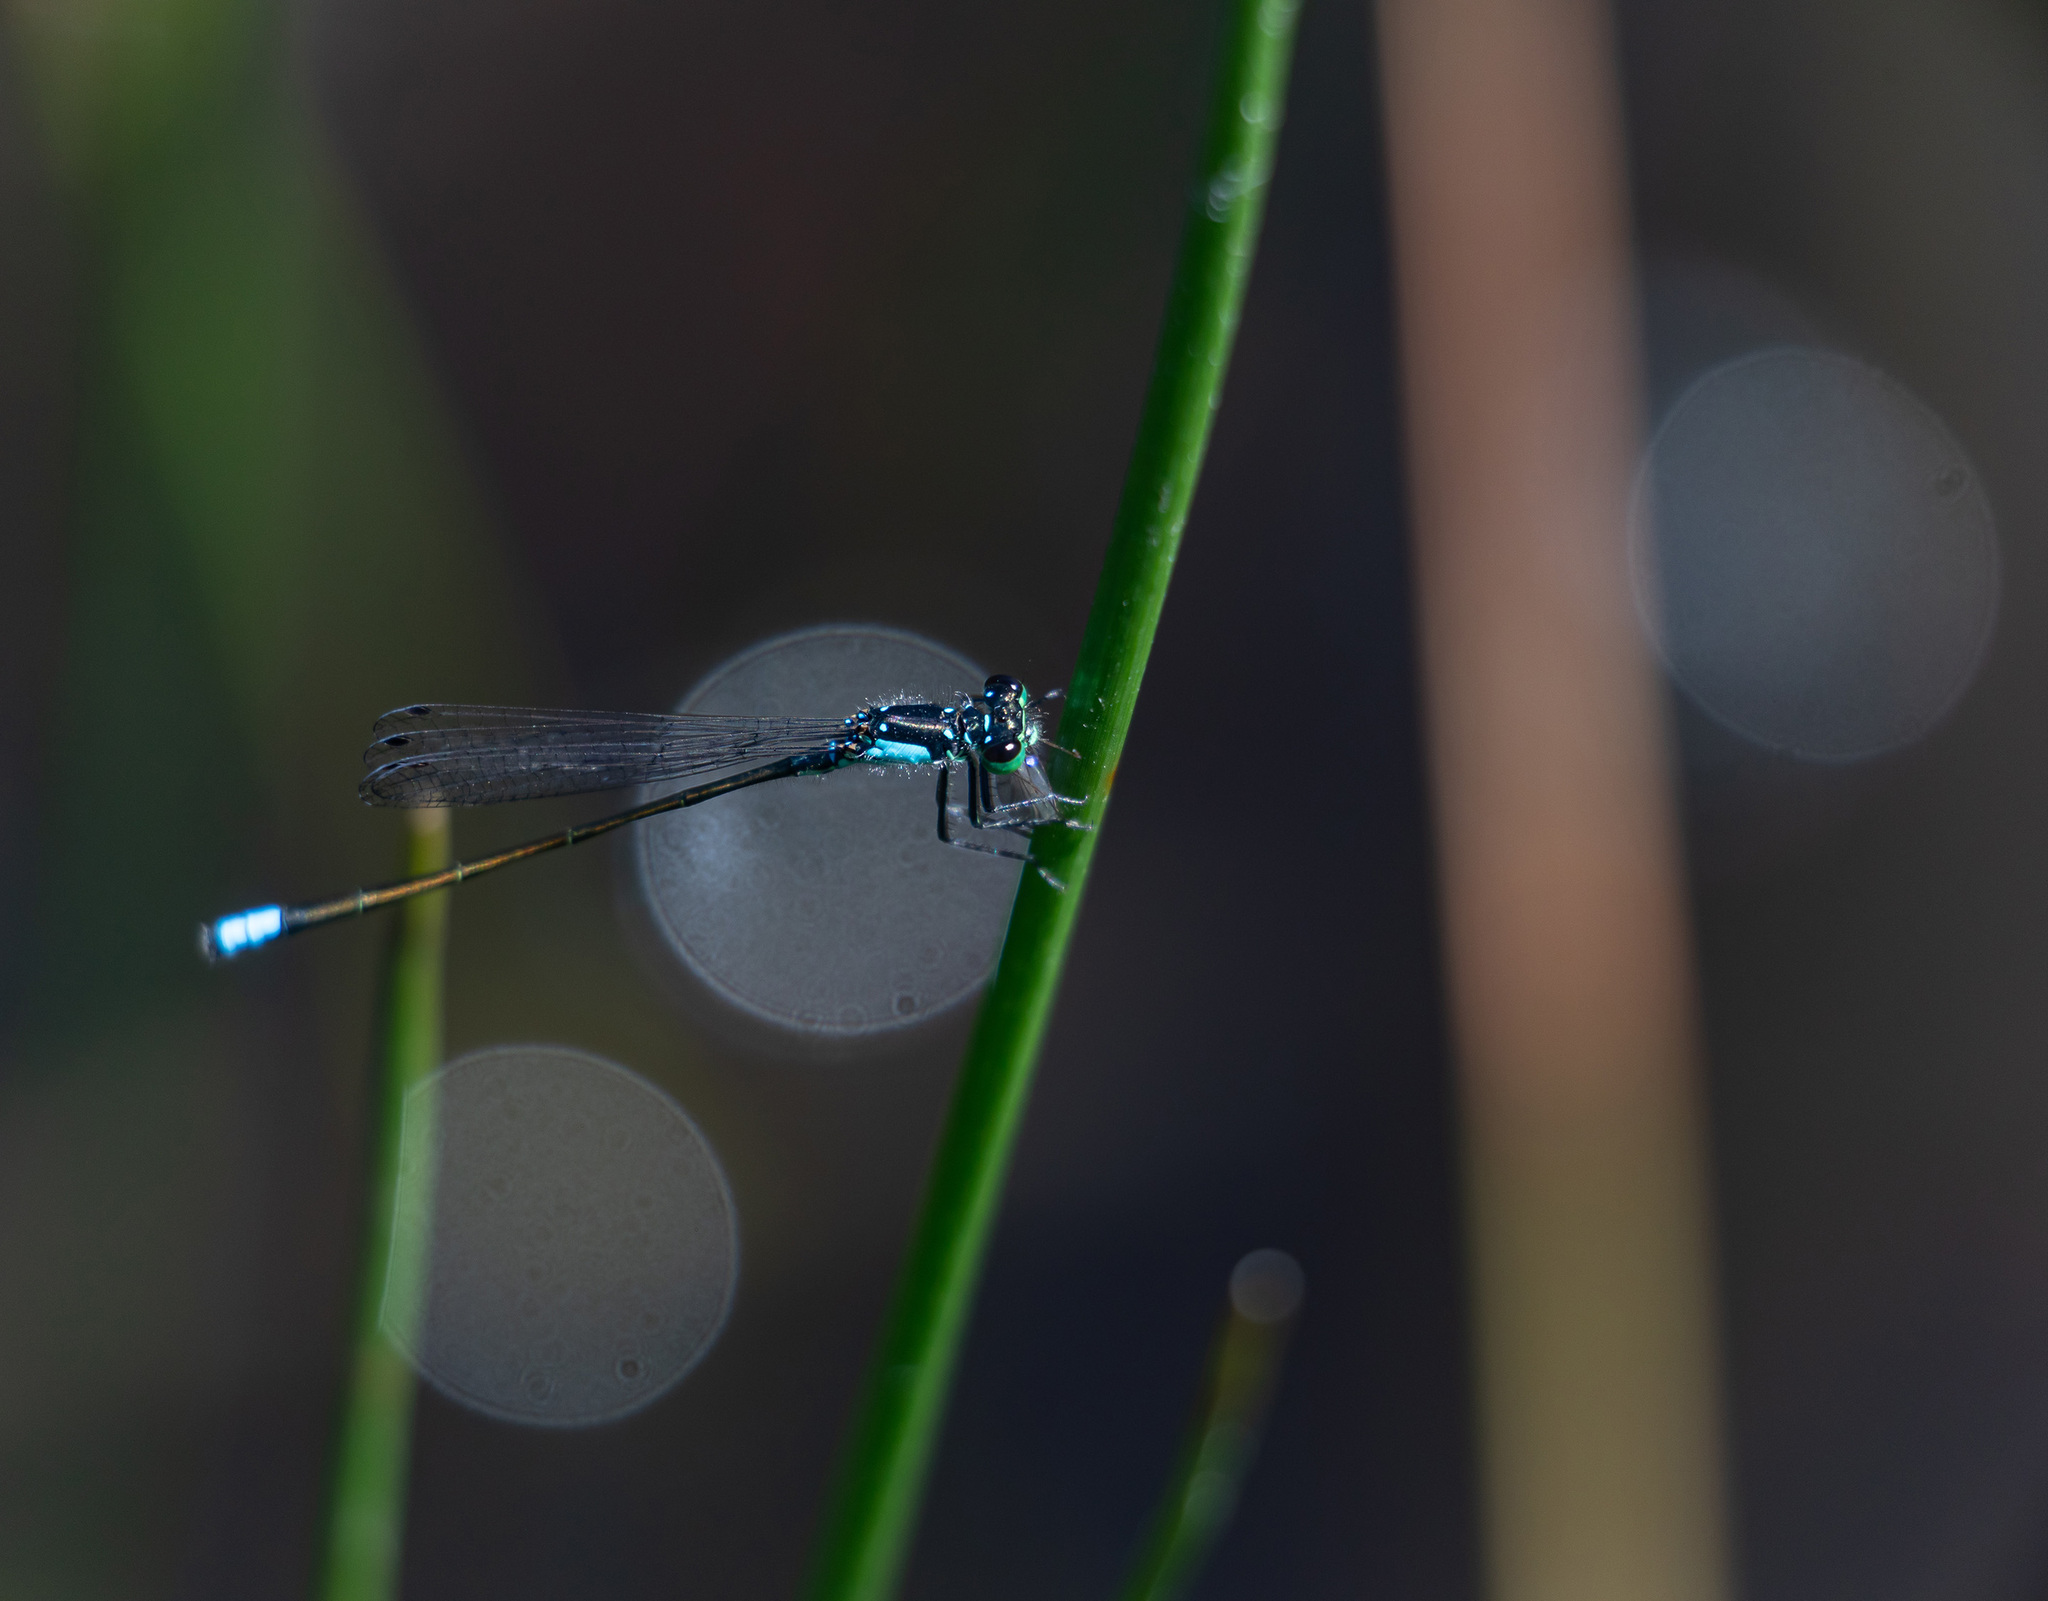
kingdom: Animalia
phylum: Arthropoda
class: Insecta
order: Odonata
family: Coenagrionidae
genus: Ischnura
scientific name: Ischnura cervula
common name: Pacific forktail
